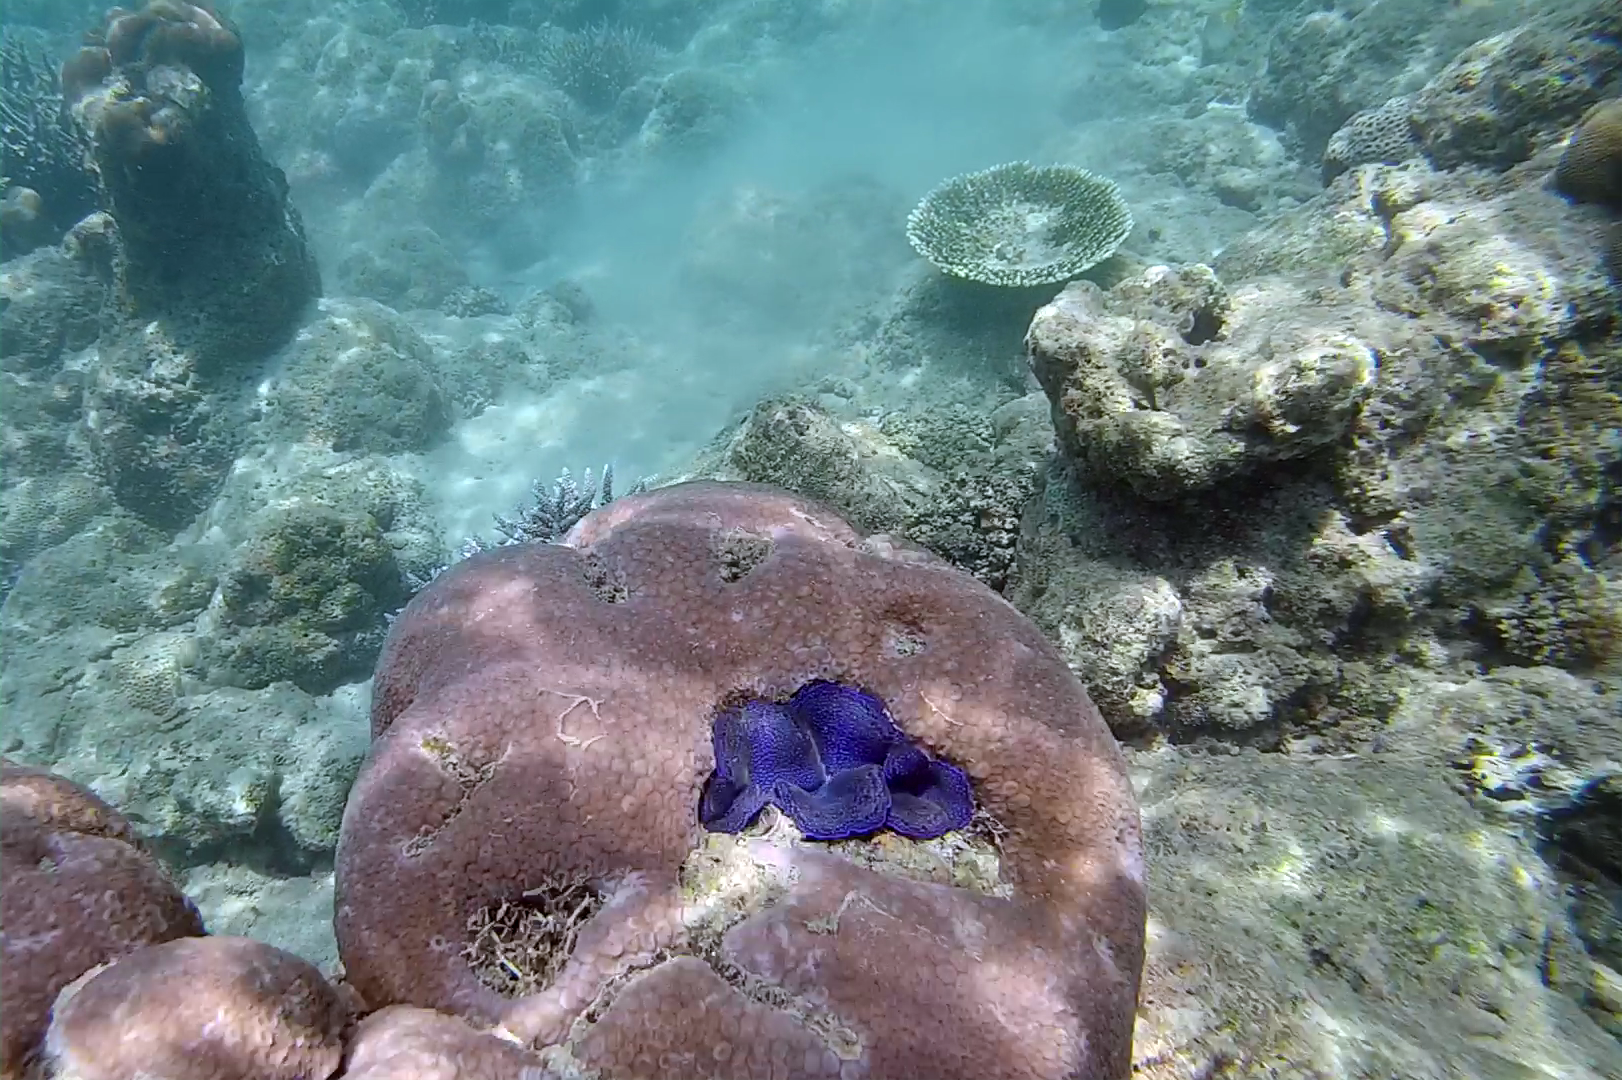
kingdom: Animalia
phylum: Mollusca
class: Bivalvia
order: Cardiida
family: Cardiidae
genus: Tridacna
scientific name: Tridacna crocea
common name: Boring clam
